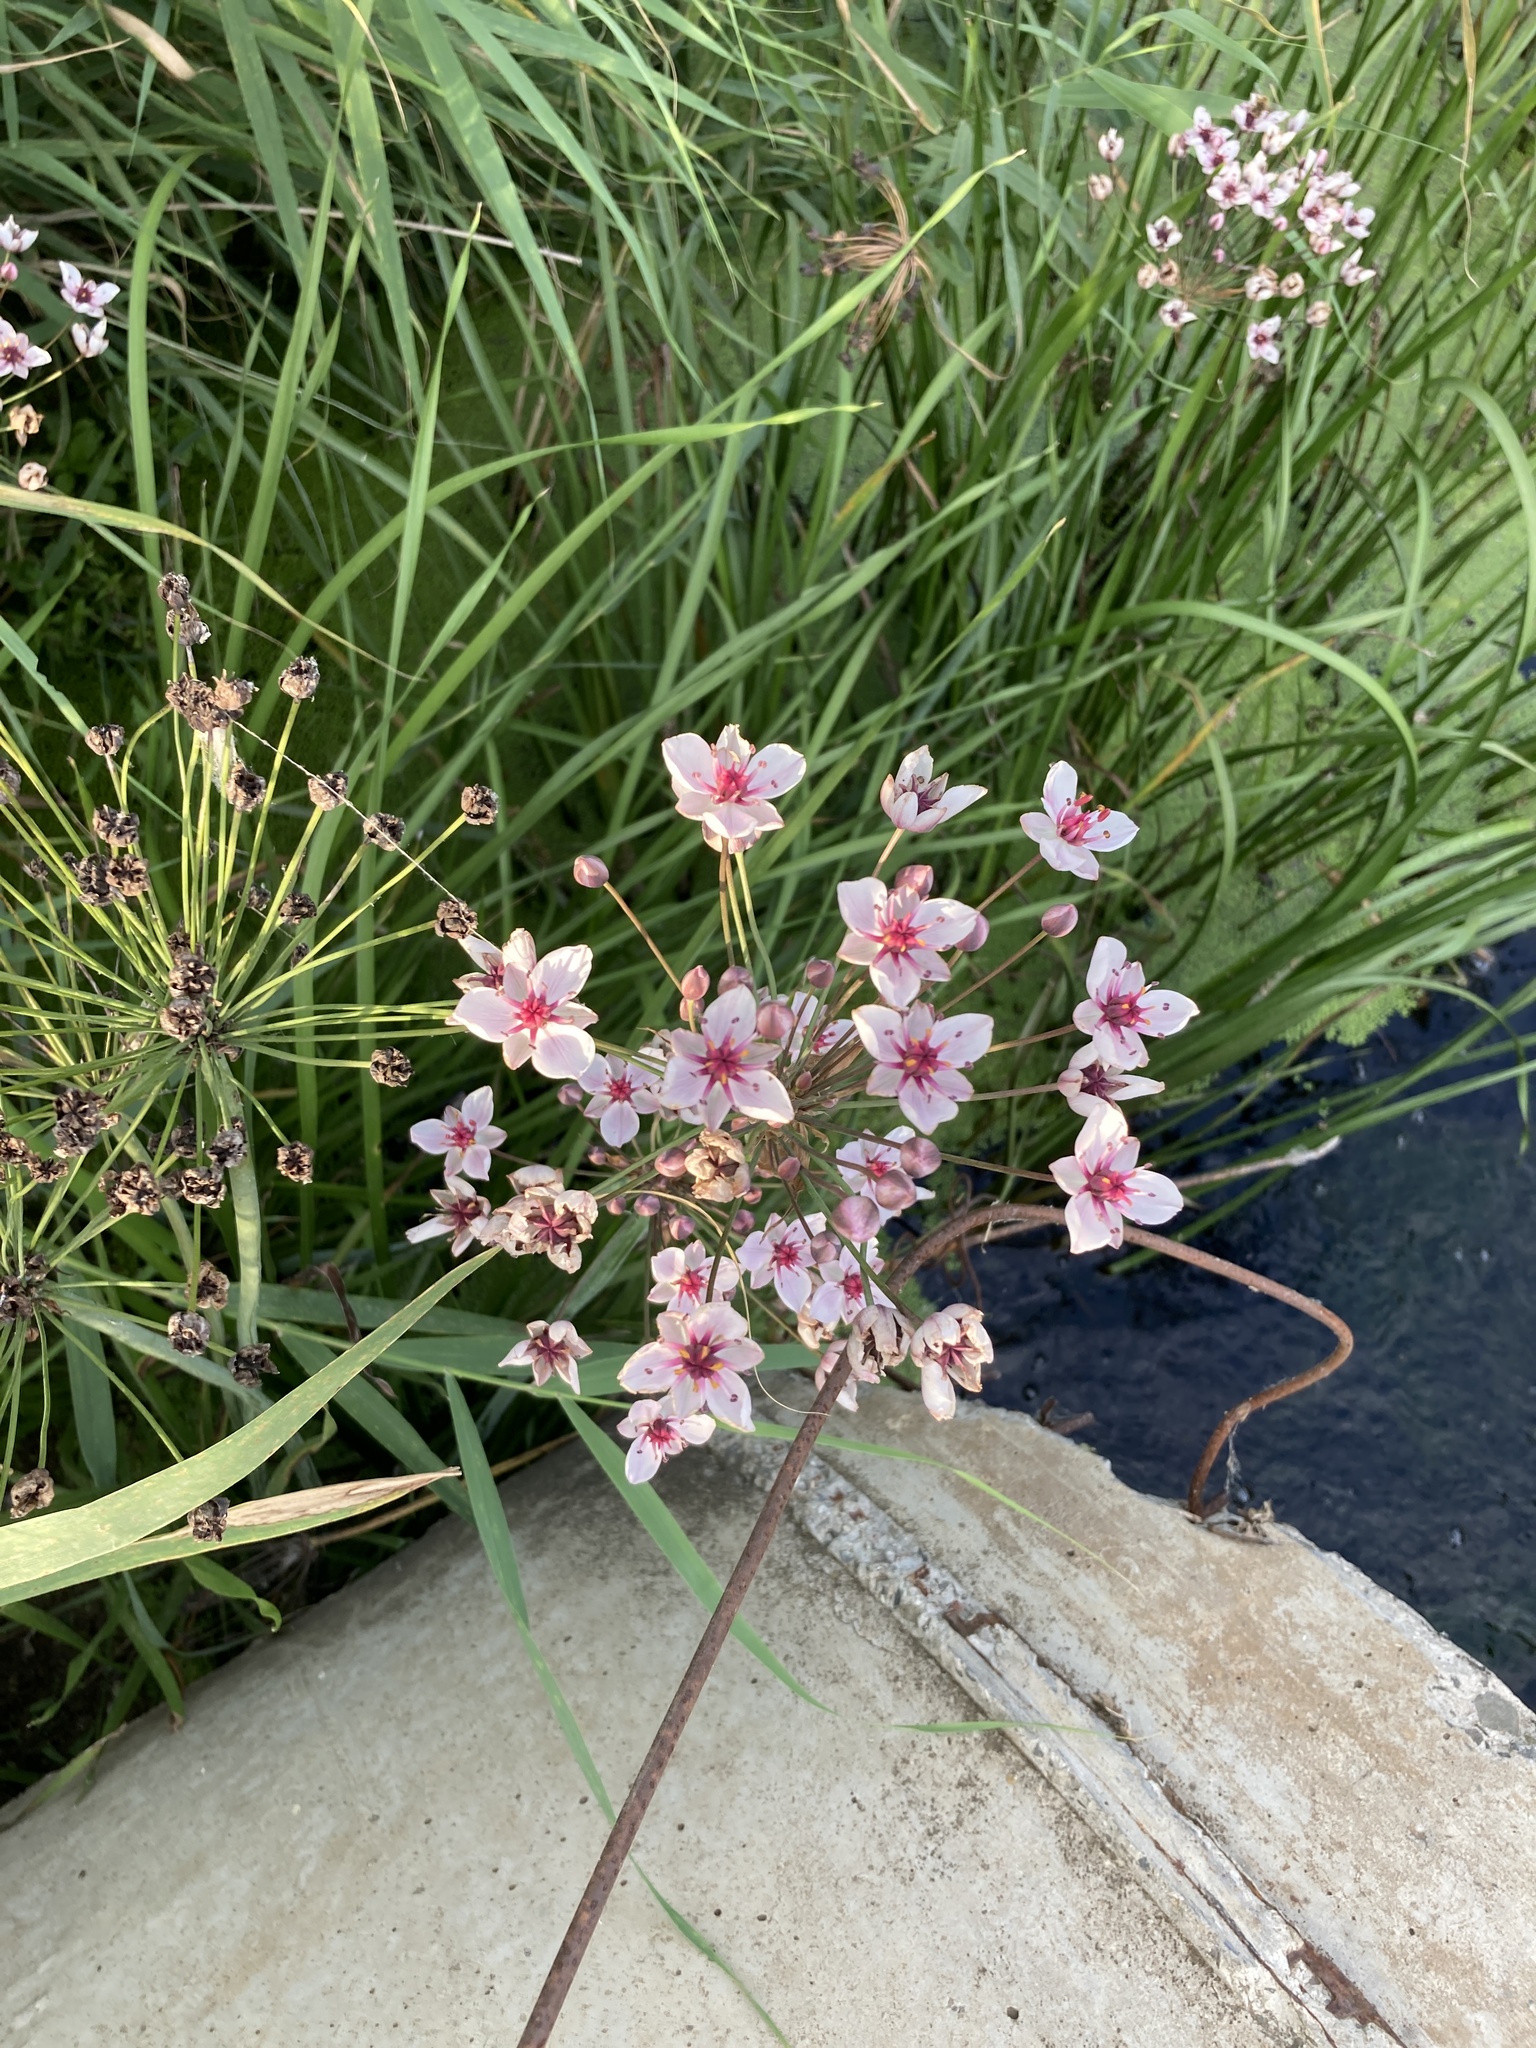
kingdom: Plantae
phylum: Tracheophyta
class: Liliopsida
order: Alismatales
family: Butomaceae
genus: Butomus
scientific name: Butomus umbellatus
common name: Flowering-rush
